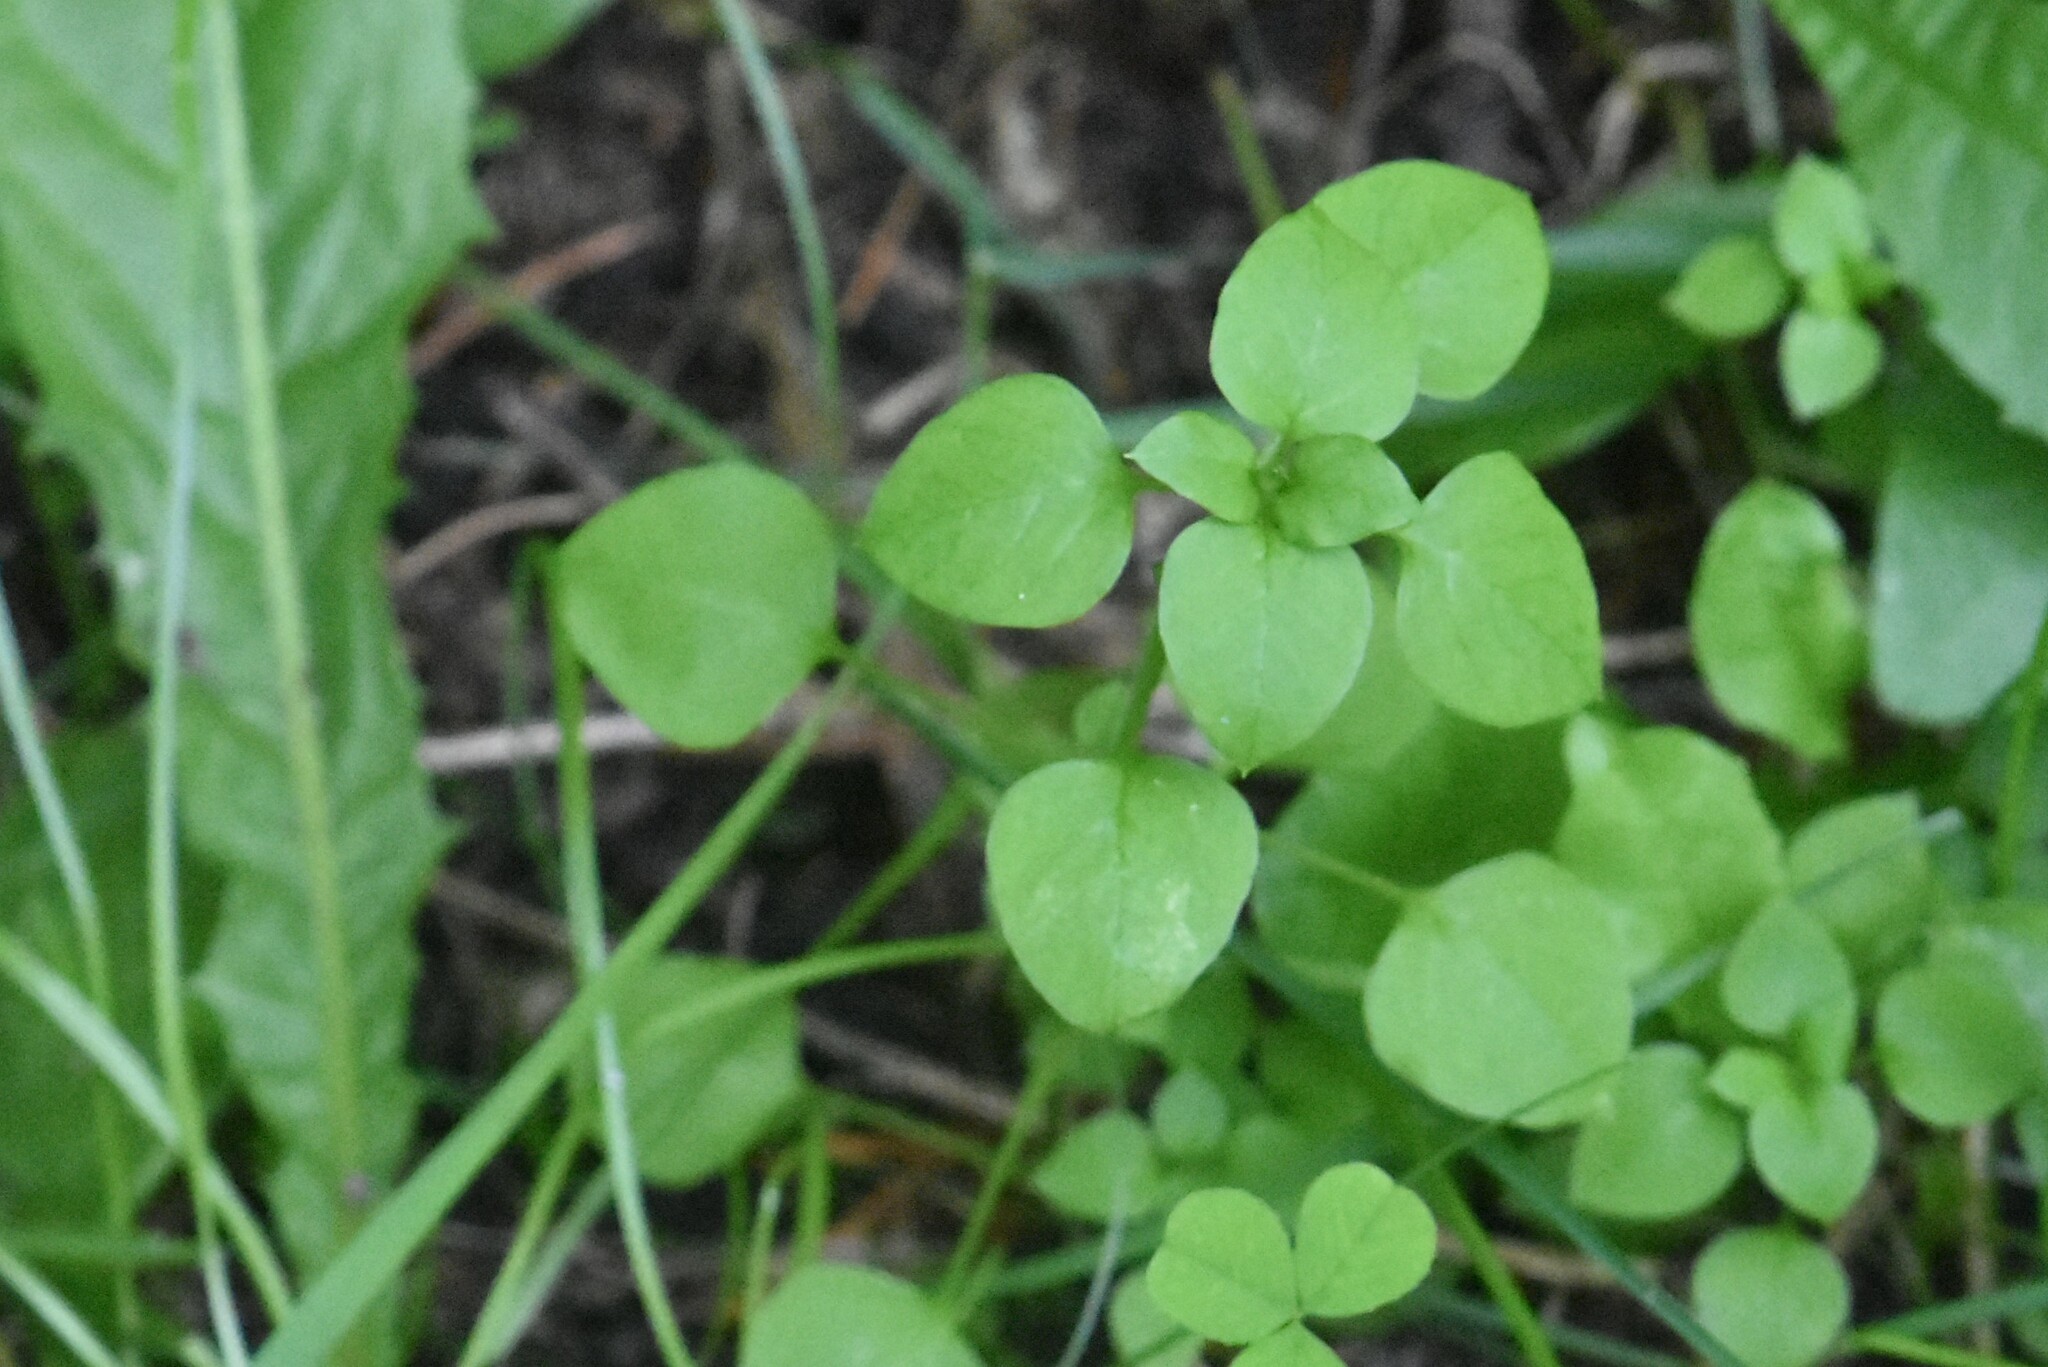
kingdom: Plantae
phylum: Tracheophyta
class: Magnoliopsida
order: Caryophyllales
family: Caryophyllaceae
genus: Stellaria
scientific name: Stellaria media
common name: Common chickweed
